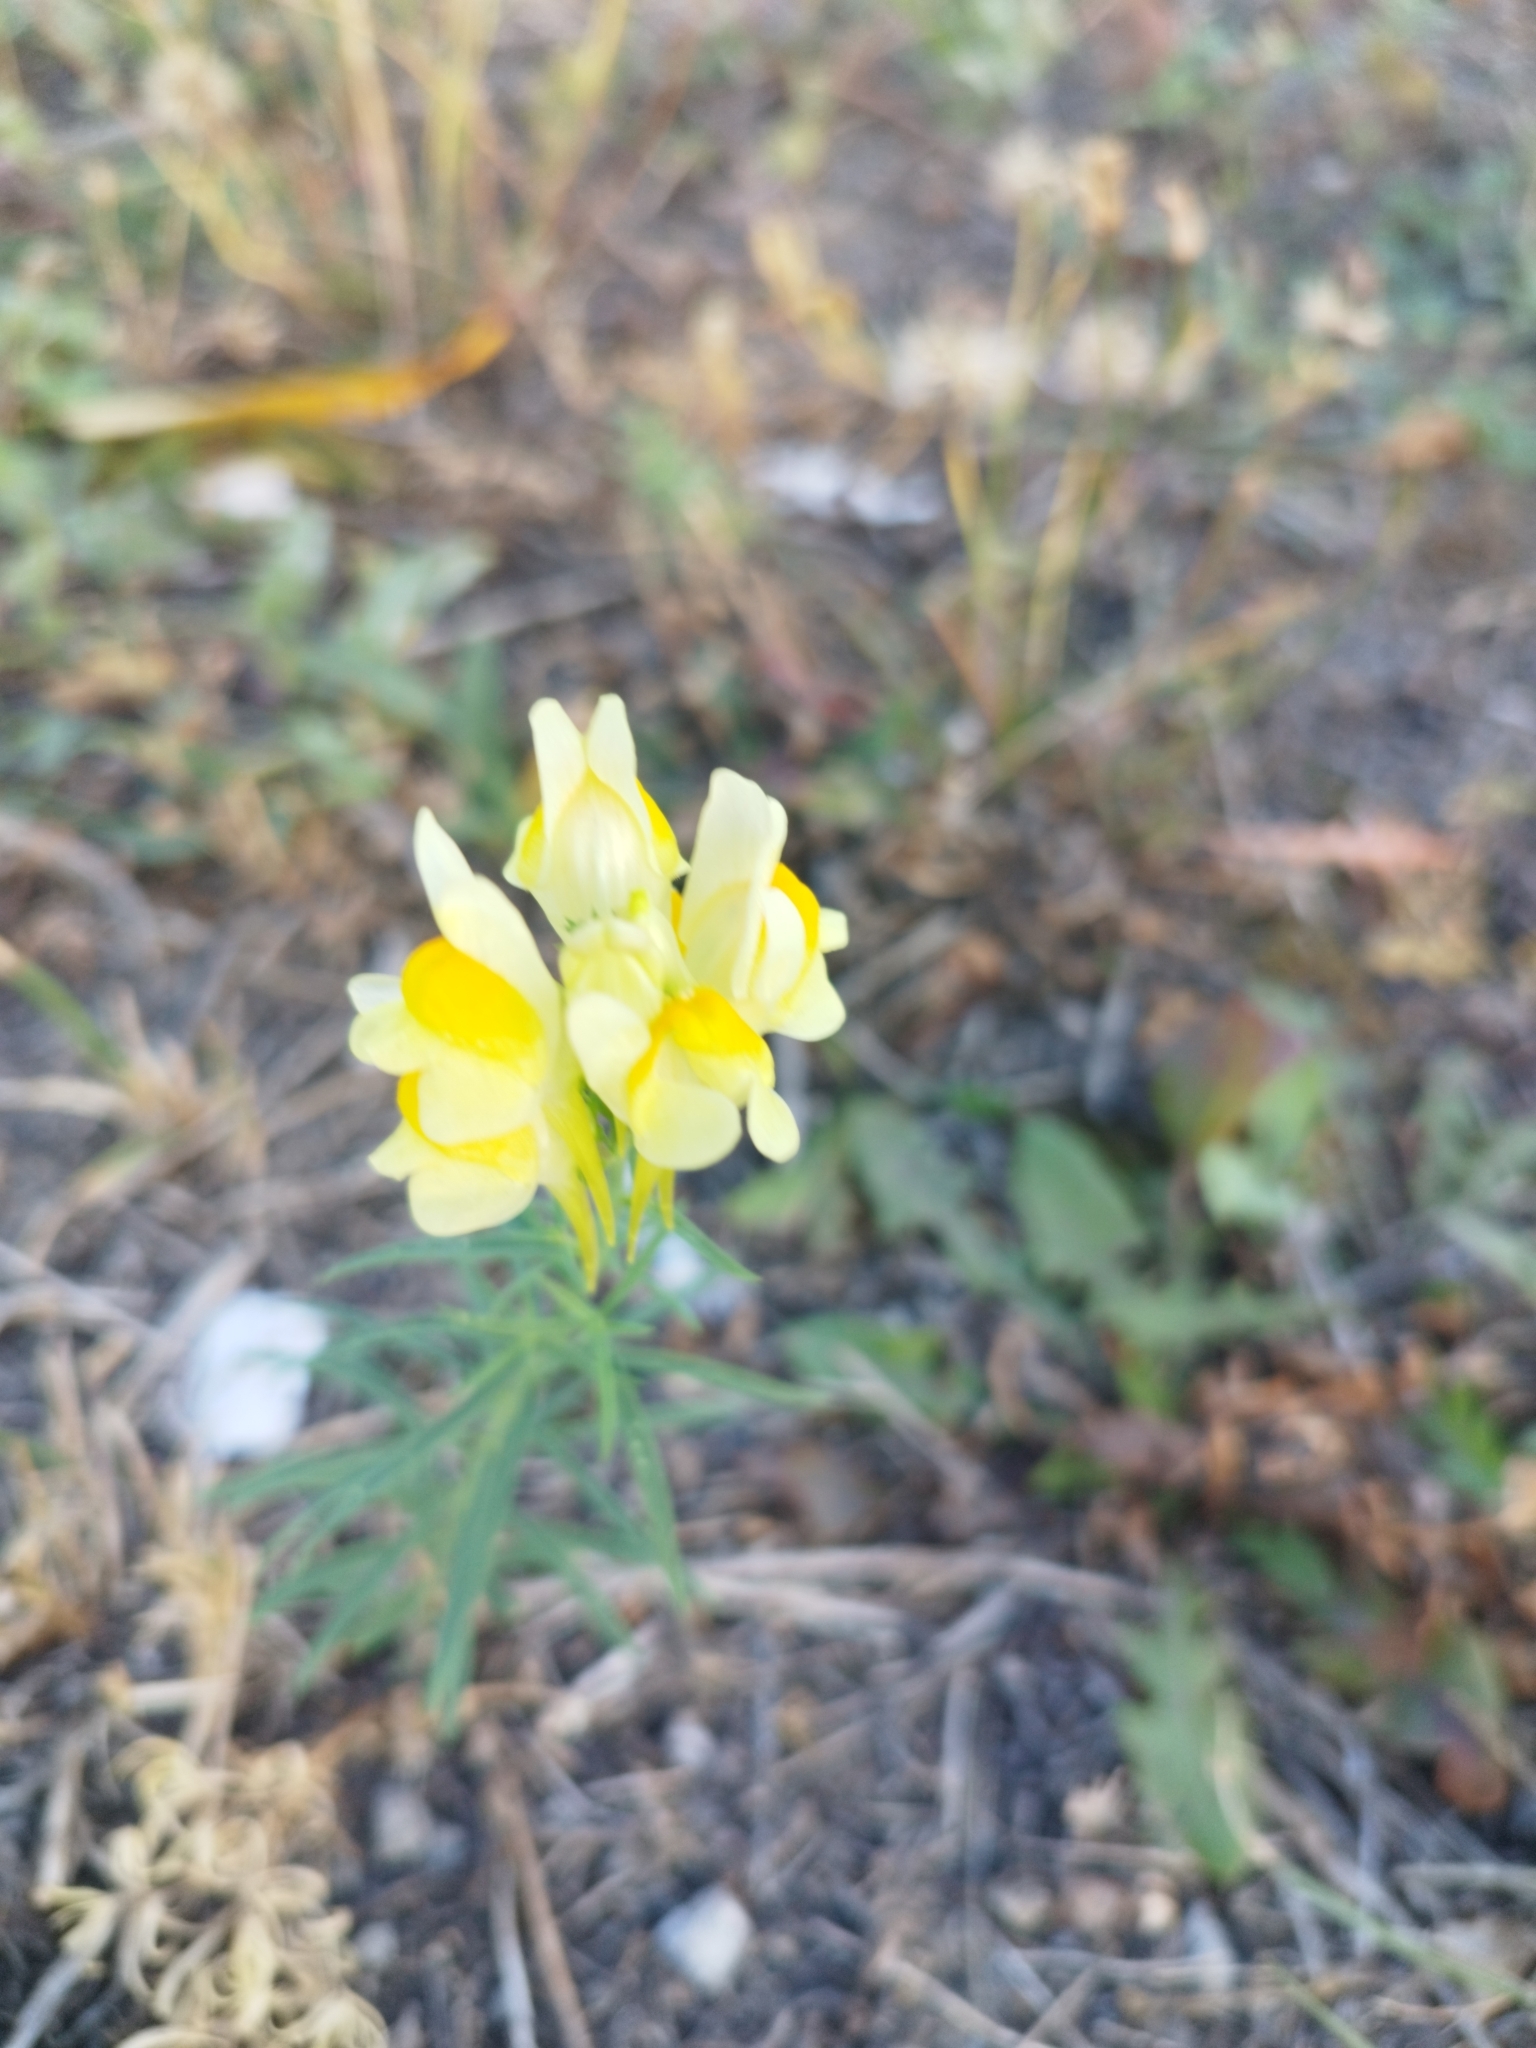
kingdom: Plantae
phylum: Tracheophyta
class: Magnoliopsida
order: Lamiales
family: Plantaginaceae
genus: Linaria
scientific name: Linaria vulgaris
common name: Butter and eggs
